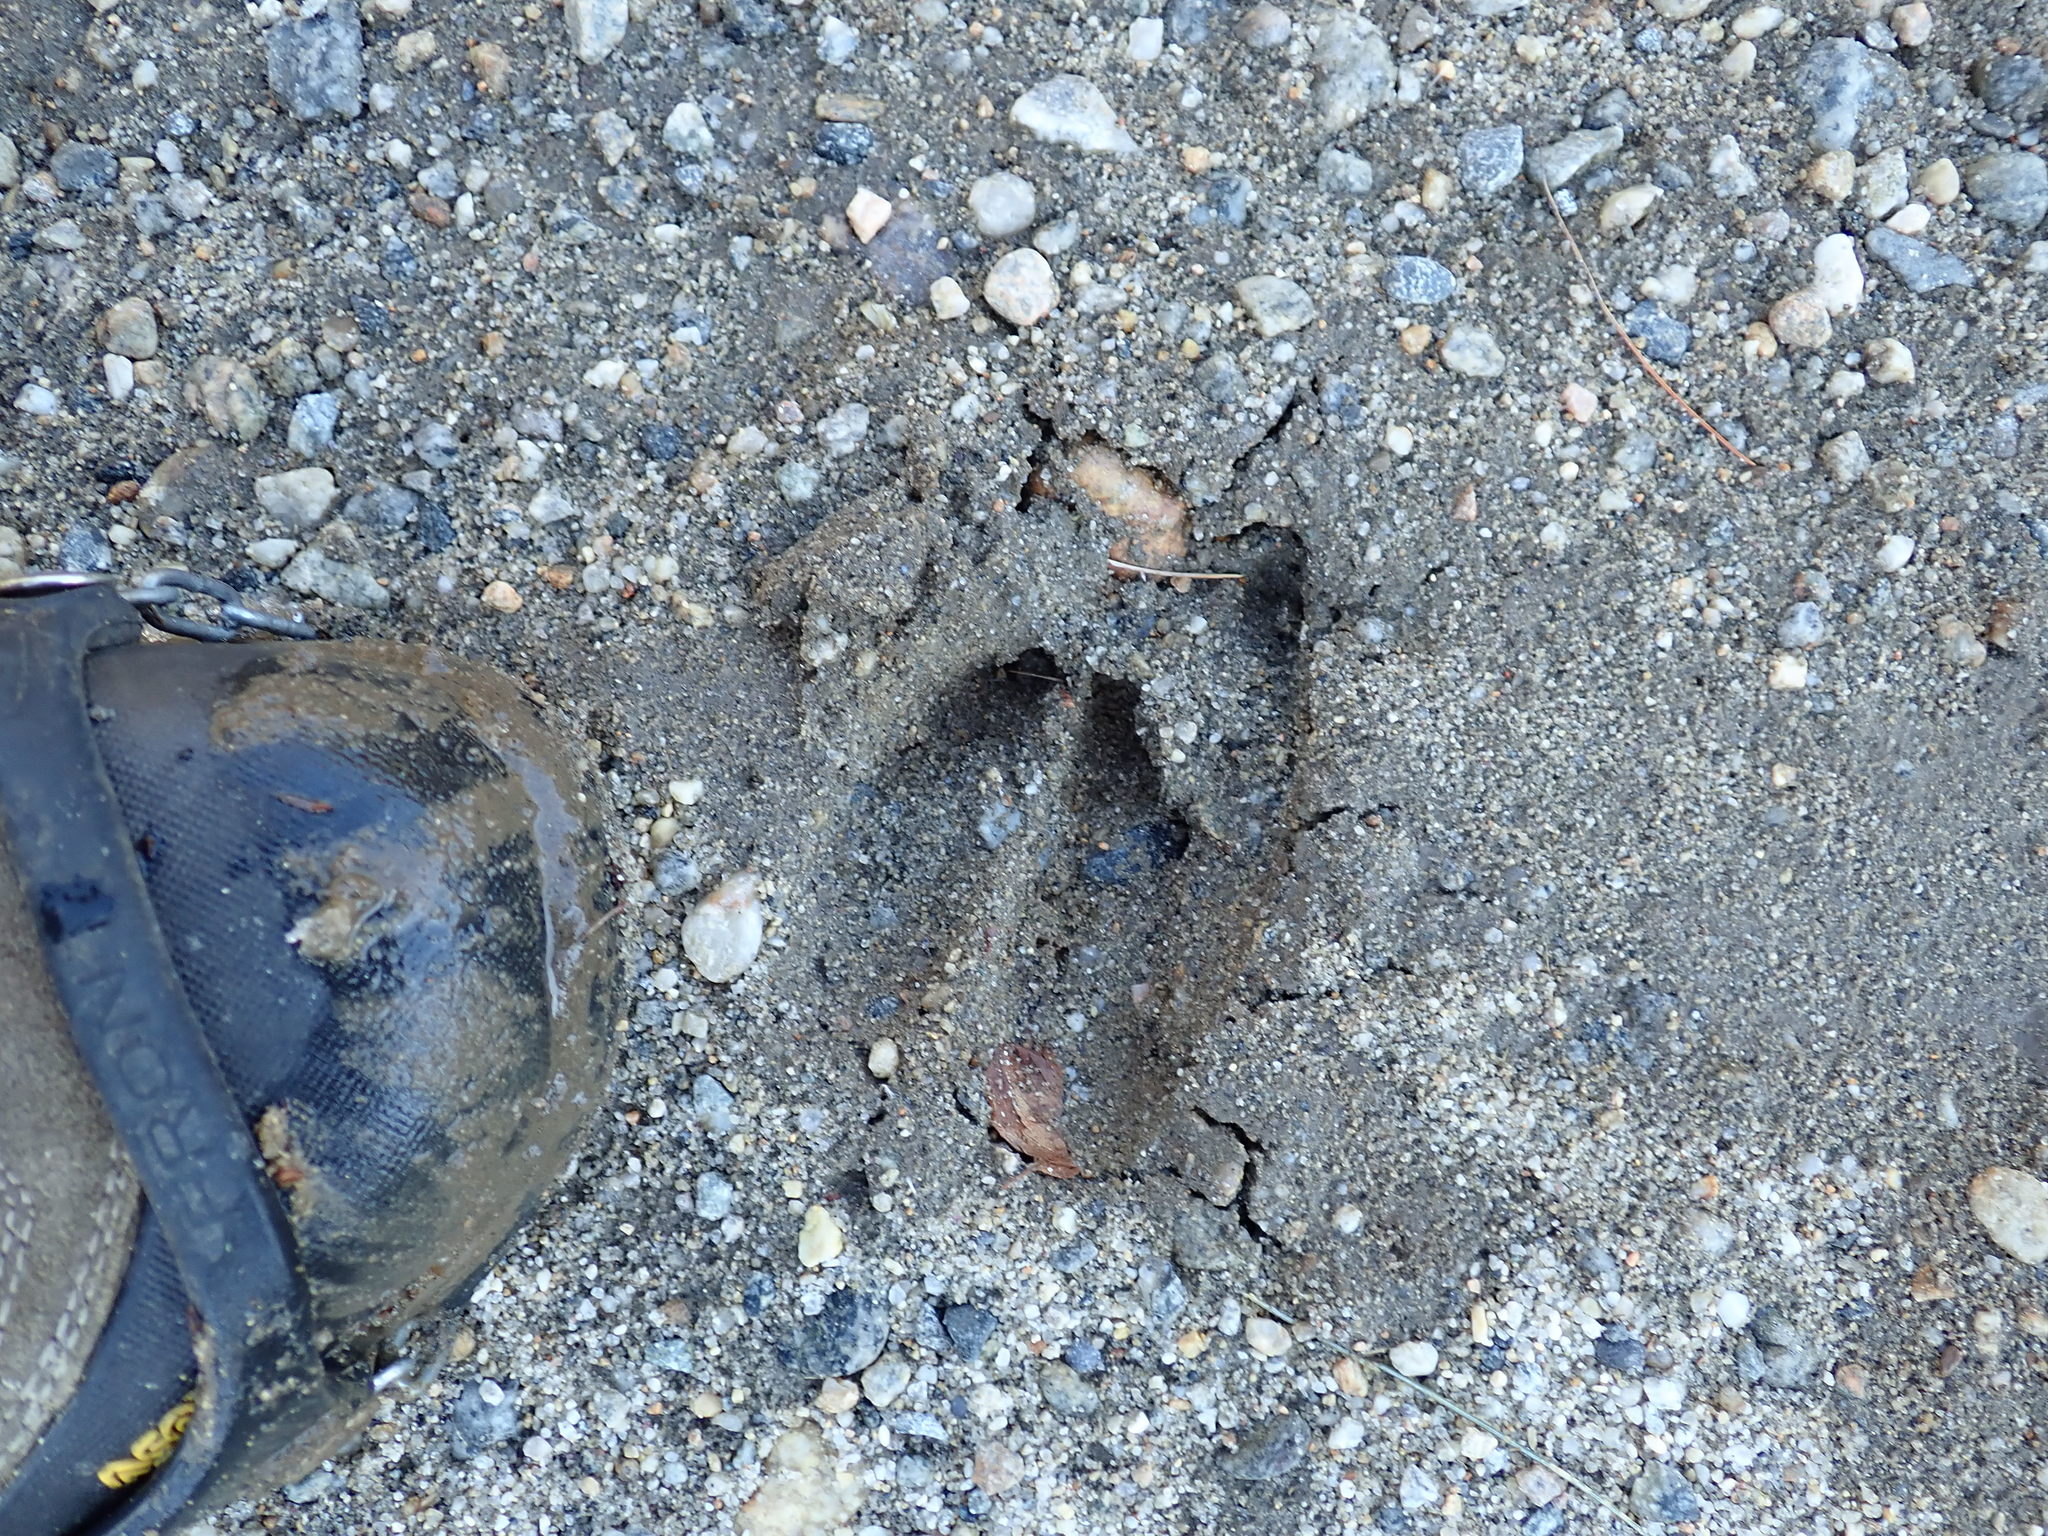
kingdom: Animalia
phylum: Chordata
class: Mammalia
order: Artiodactyla
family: Cervidae
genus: Odocoileus
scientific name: Odocoileus virginianus
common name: White-tailed deer
